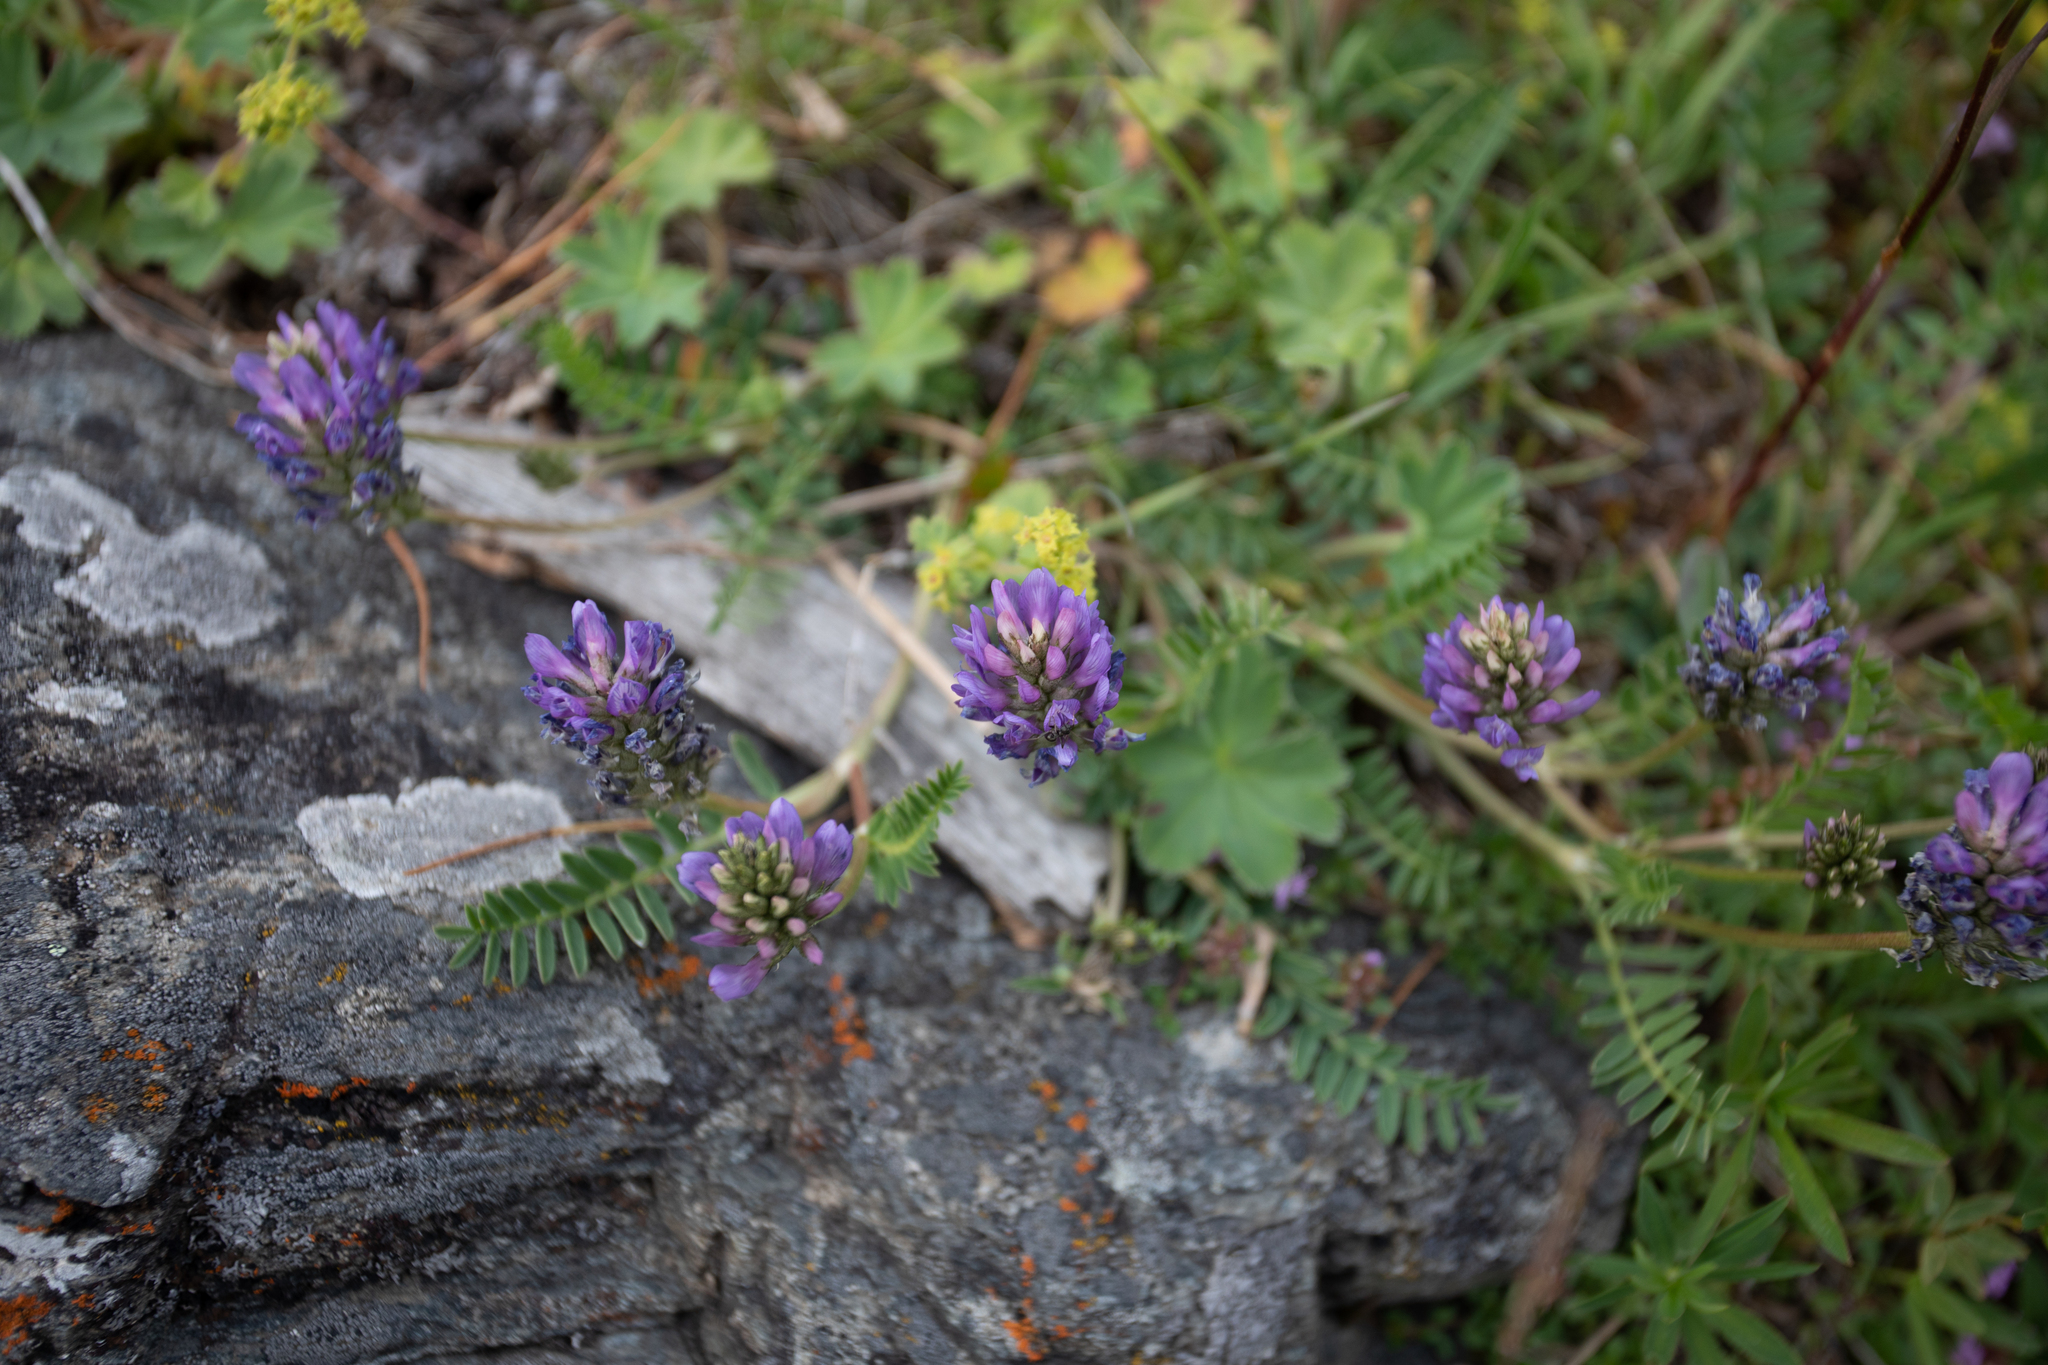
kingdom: Plantae
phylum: Tracheophyta
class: Magnoliopsida
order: Fabales
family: Fabaceae
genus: Astragalus
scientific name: Astragalus laxmannii
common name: Laxmann's milk-vetch
